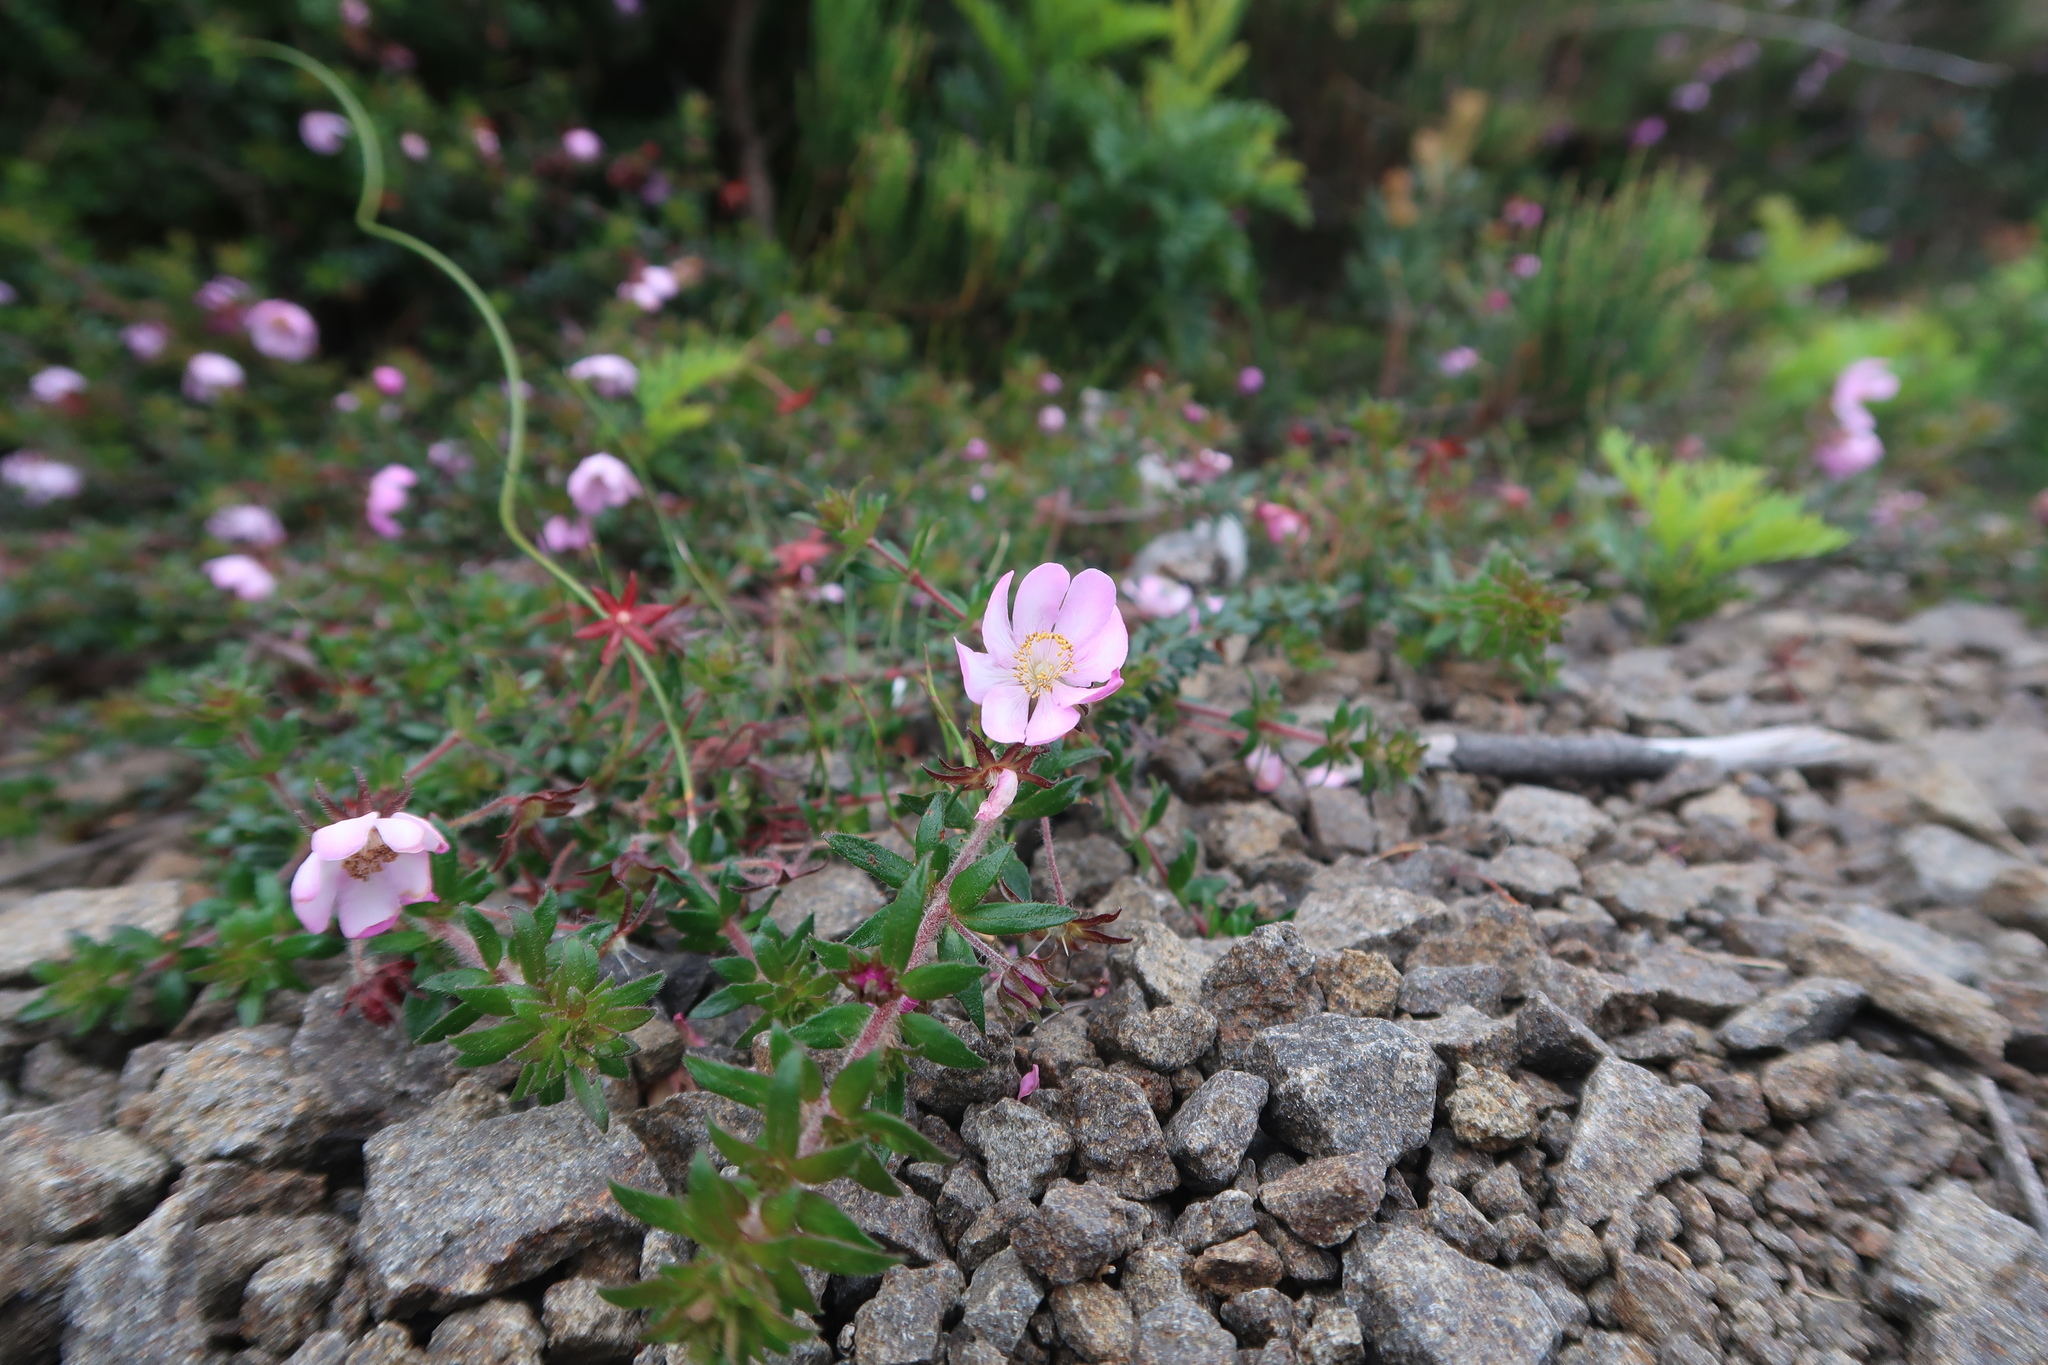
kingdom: Plantae
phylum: Tracheophyta
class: Magnoliopsida
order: Oxalidales
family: Cunoniaceae
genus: Bauera
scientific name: Bauera rubioides
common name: River-rose
